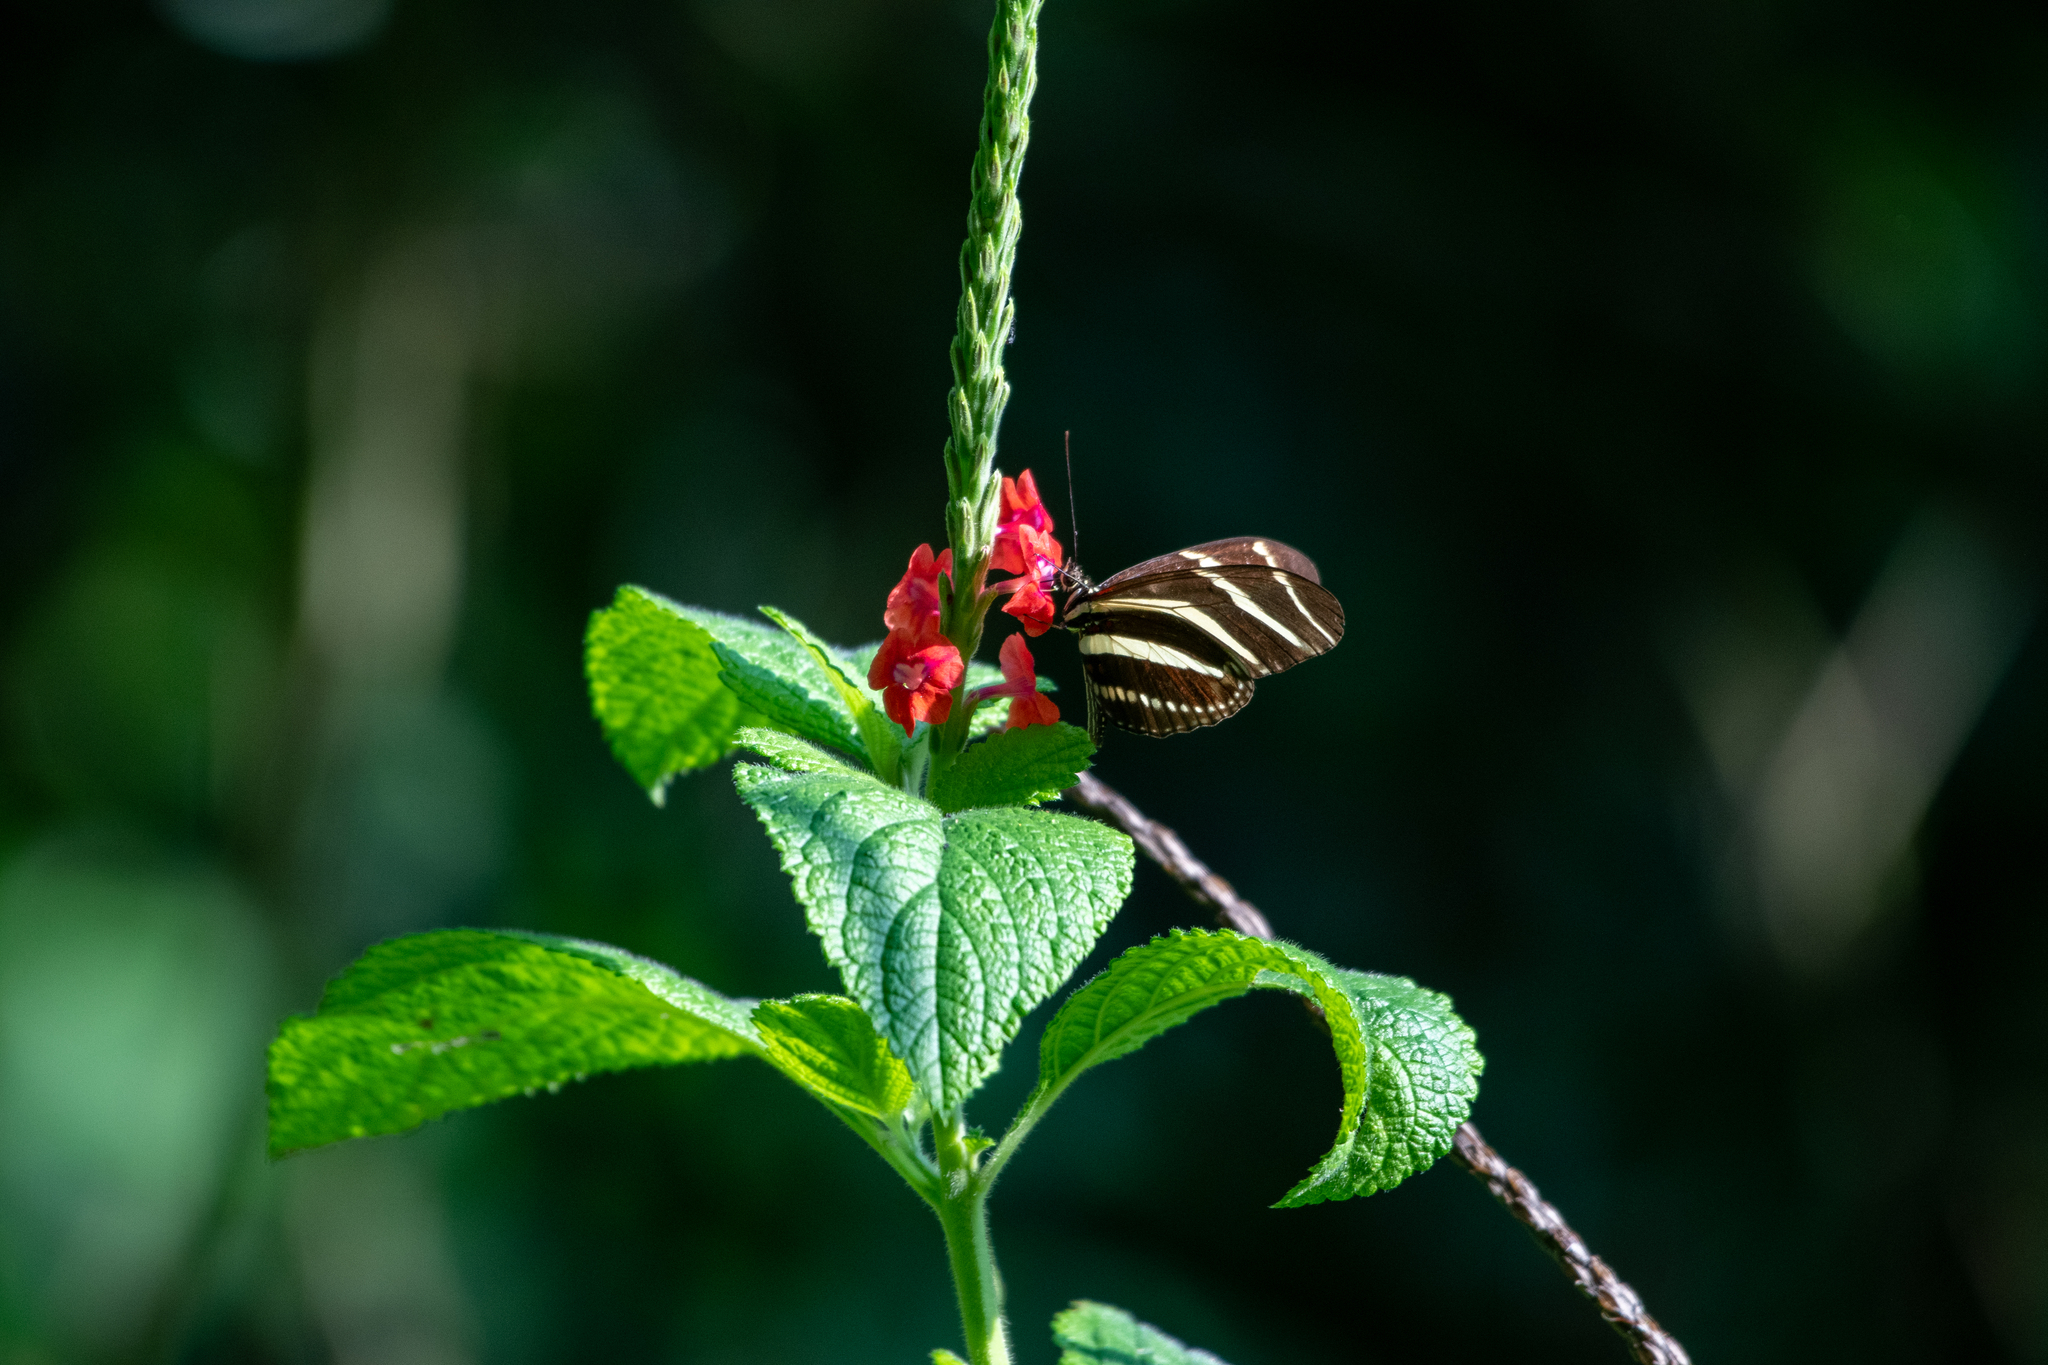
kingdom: Animalia
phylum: Arthropoda
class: Insecta
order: Lepidoptera
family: Nymphalidae
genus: Heliconius
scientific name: Heliconius charithonia
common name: Zebra long wing
